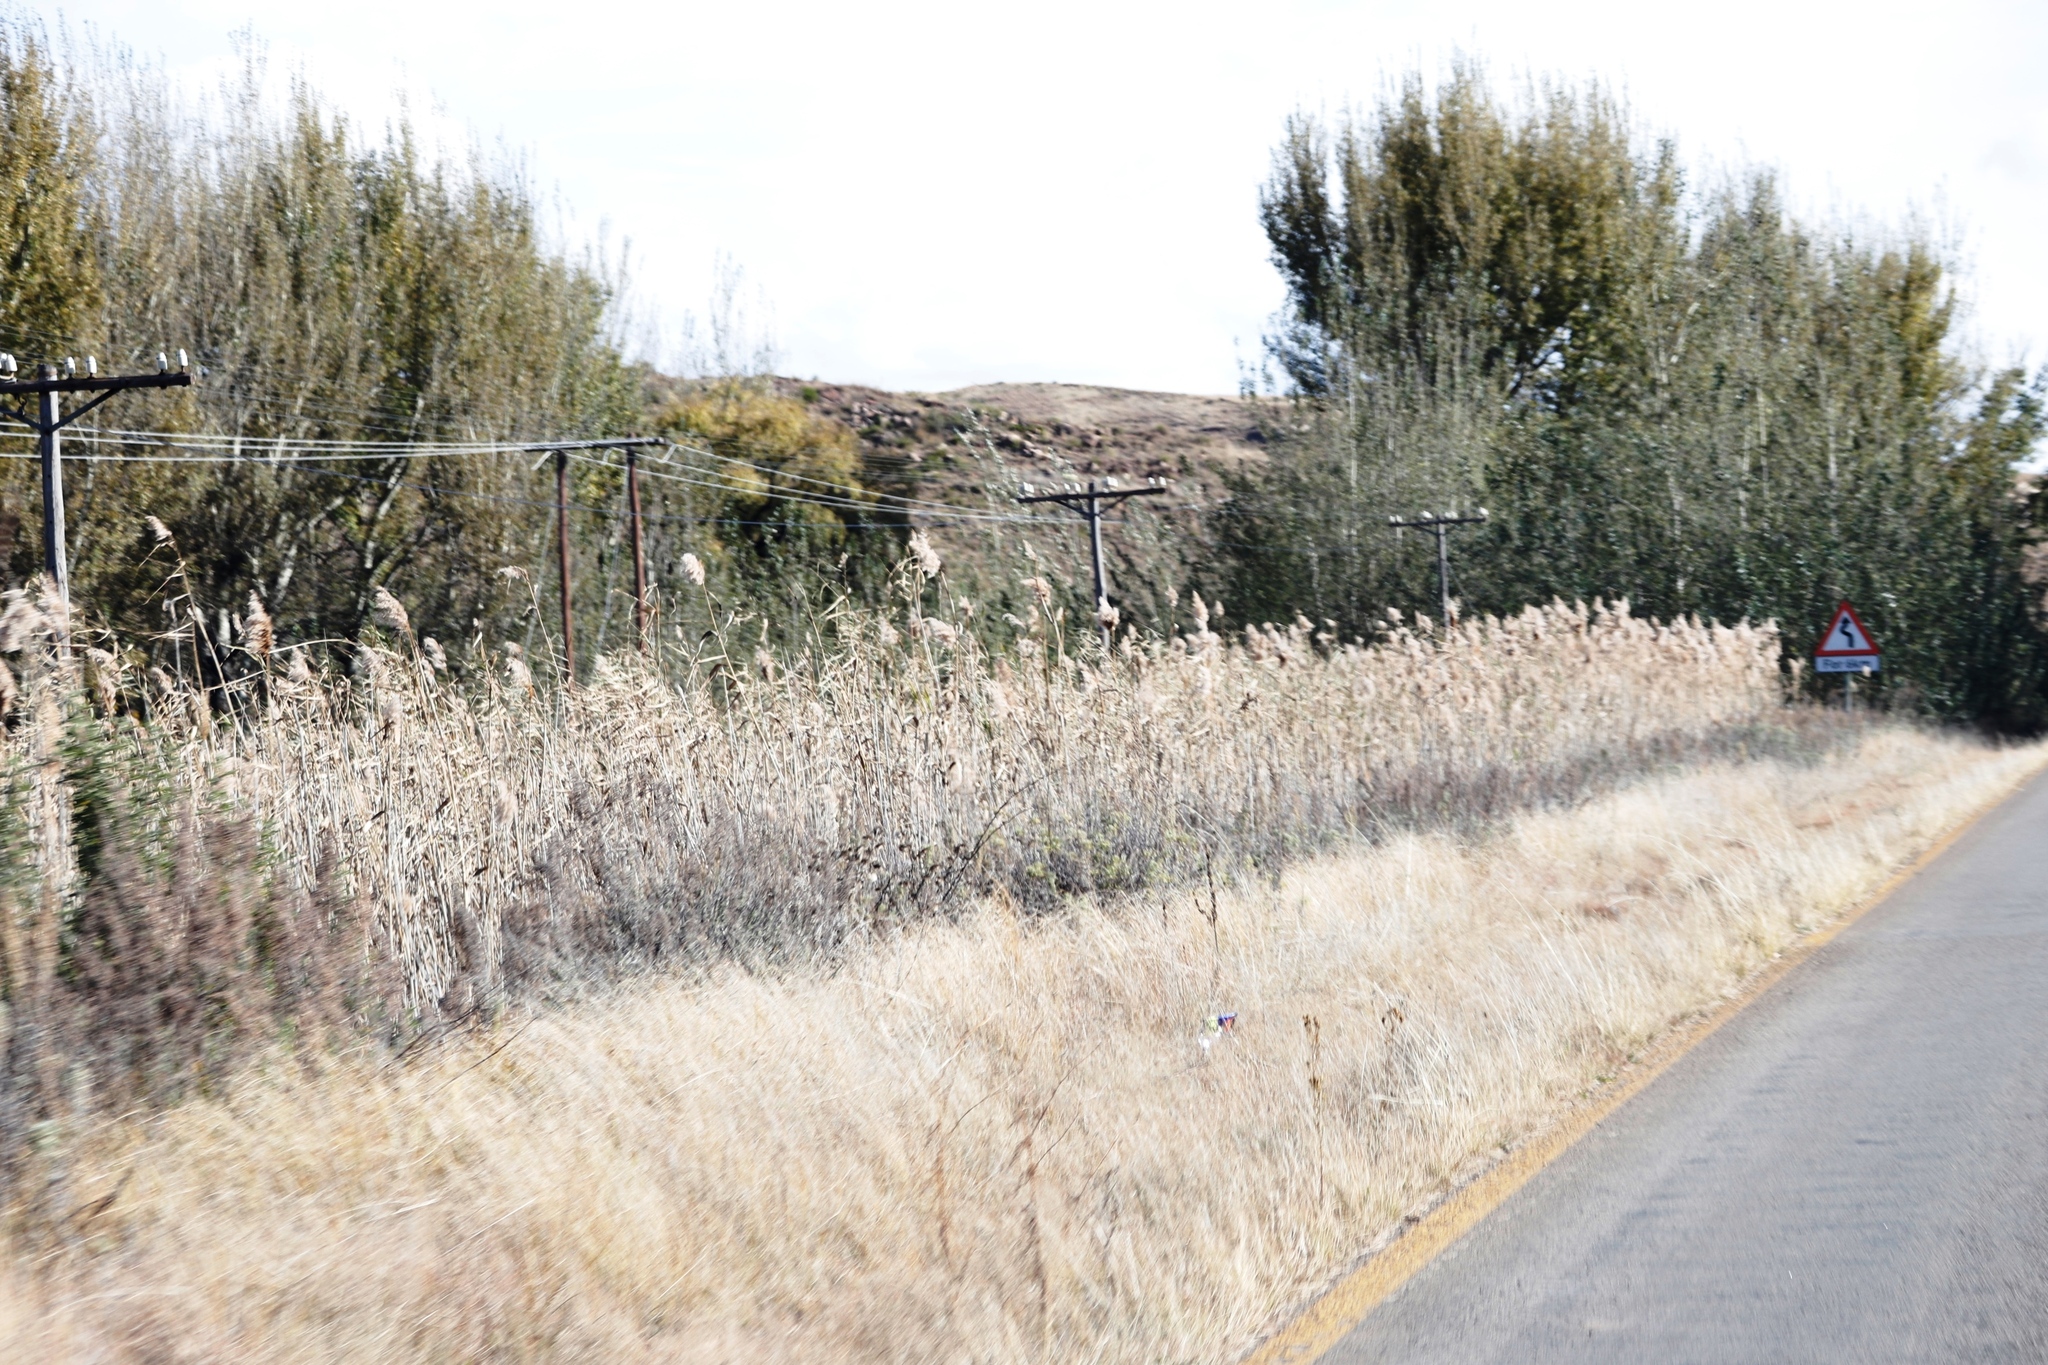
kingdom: Plantae
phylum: Tracheophyta
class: Liliopsida
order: Poales
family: Poaceae
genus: Phragmites
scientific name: Phragmites australis
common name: Common reed
